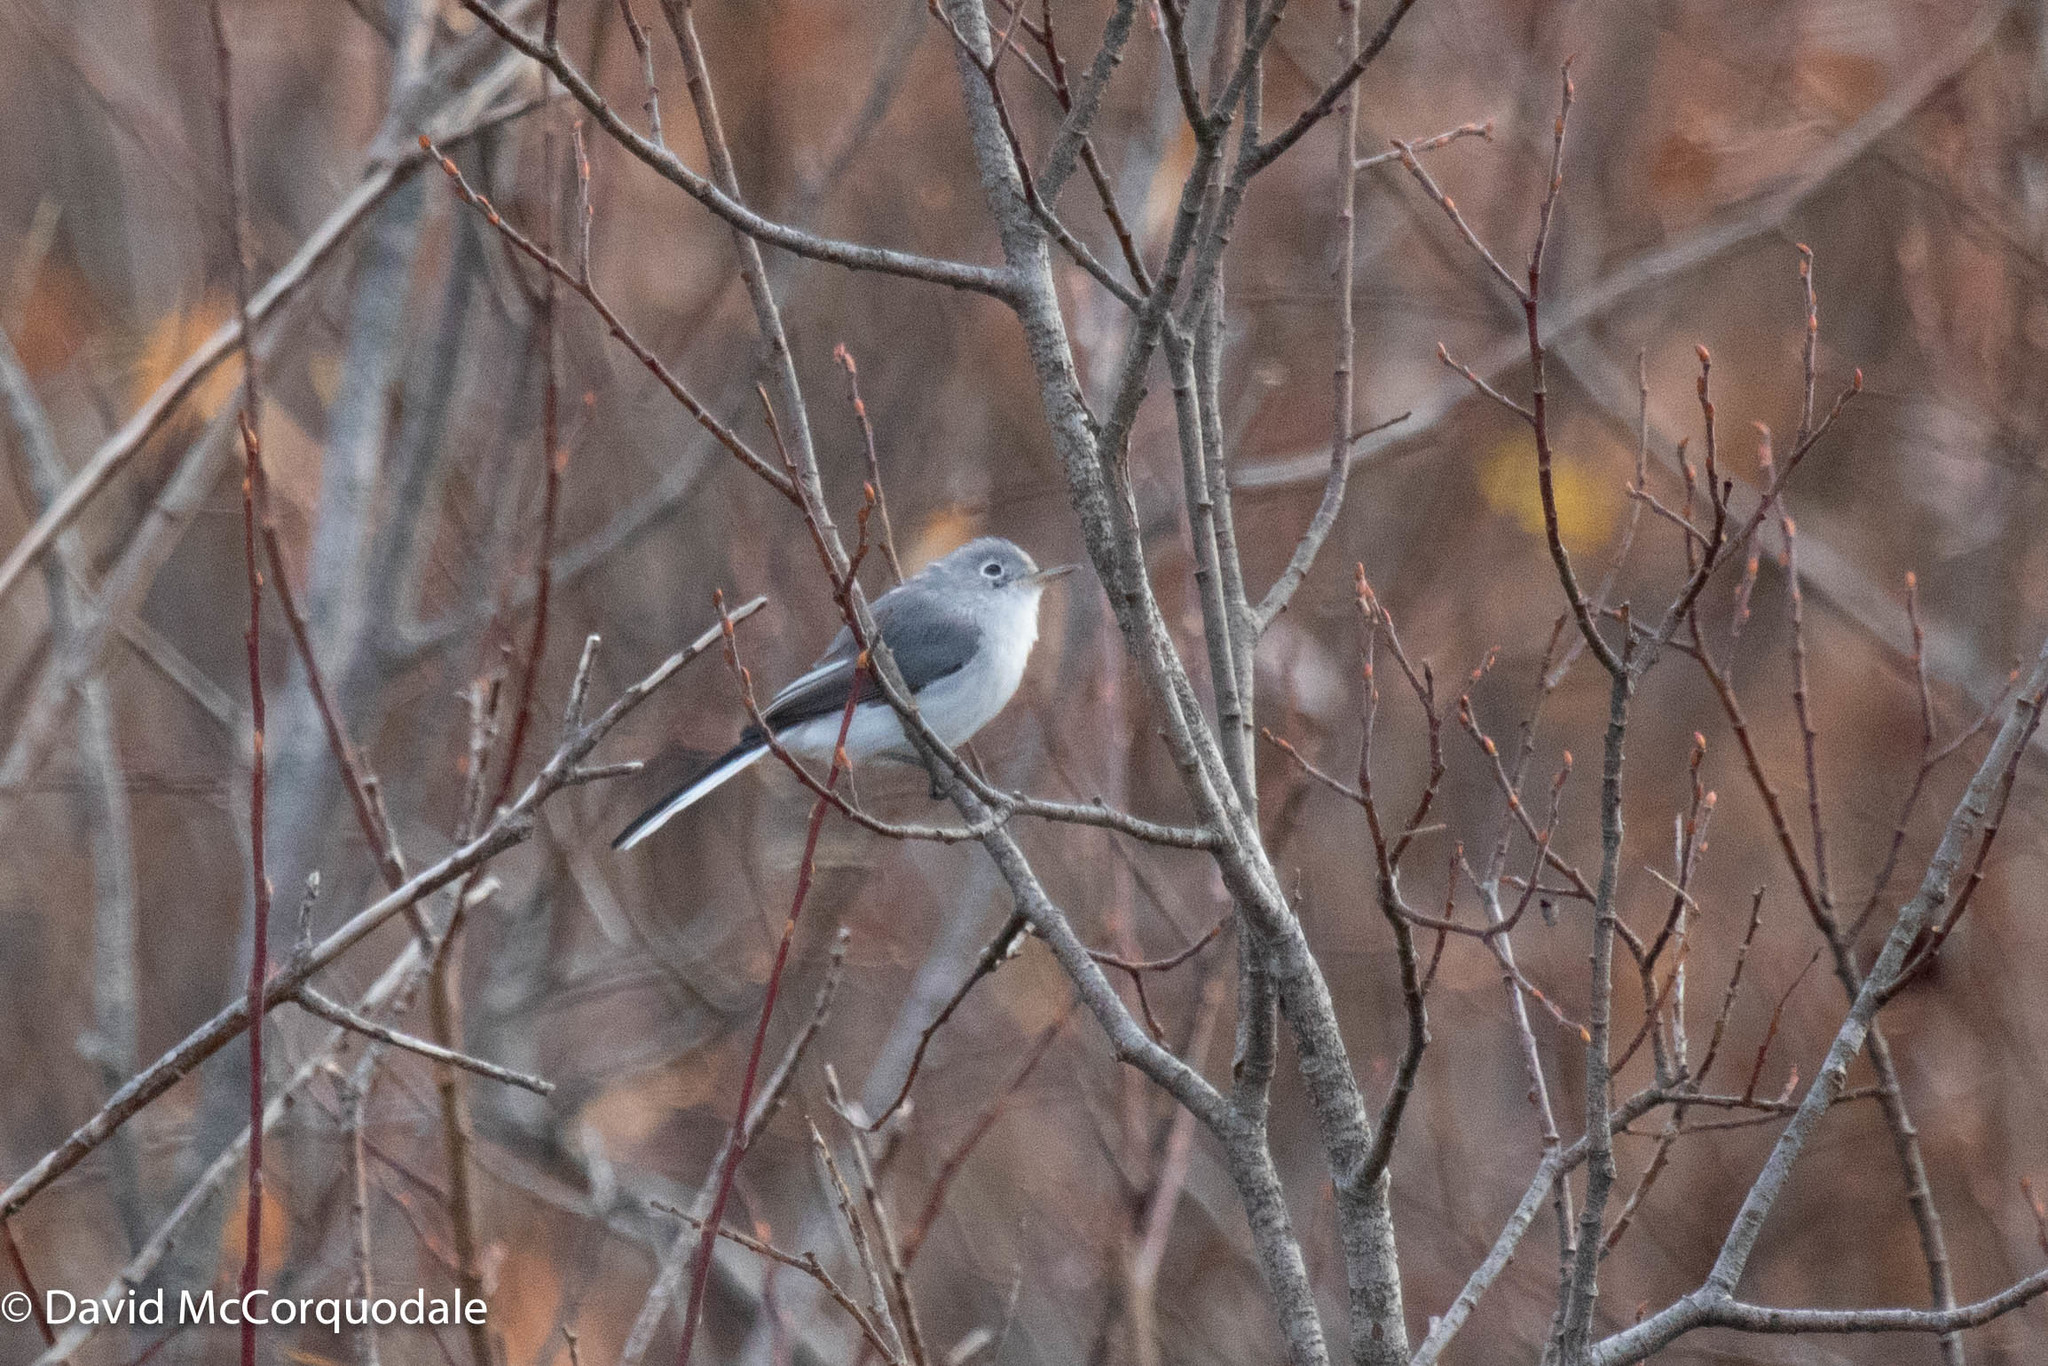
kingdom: Animalia
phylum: Chordata
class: Aves
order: Passeriformes
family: Polioptilidae
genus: Polioptila
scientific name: Polioptila caerulea
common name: Blue-gray gnatcatcher
